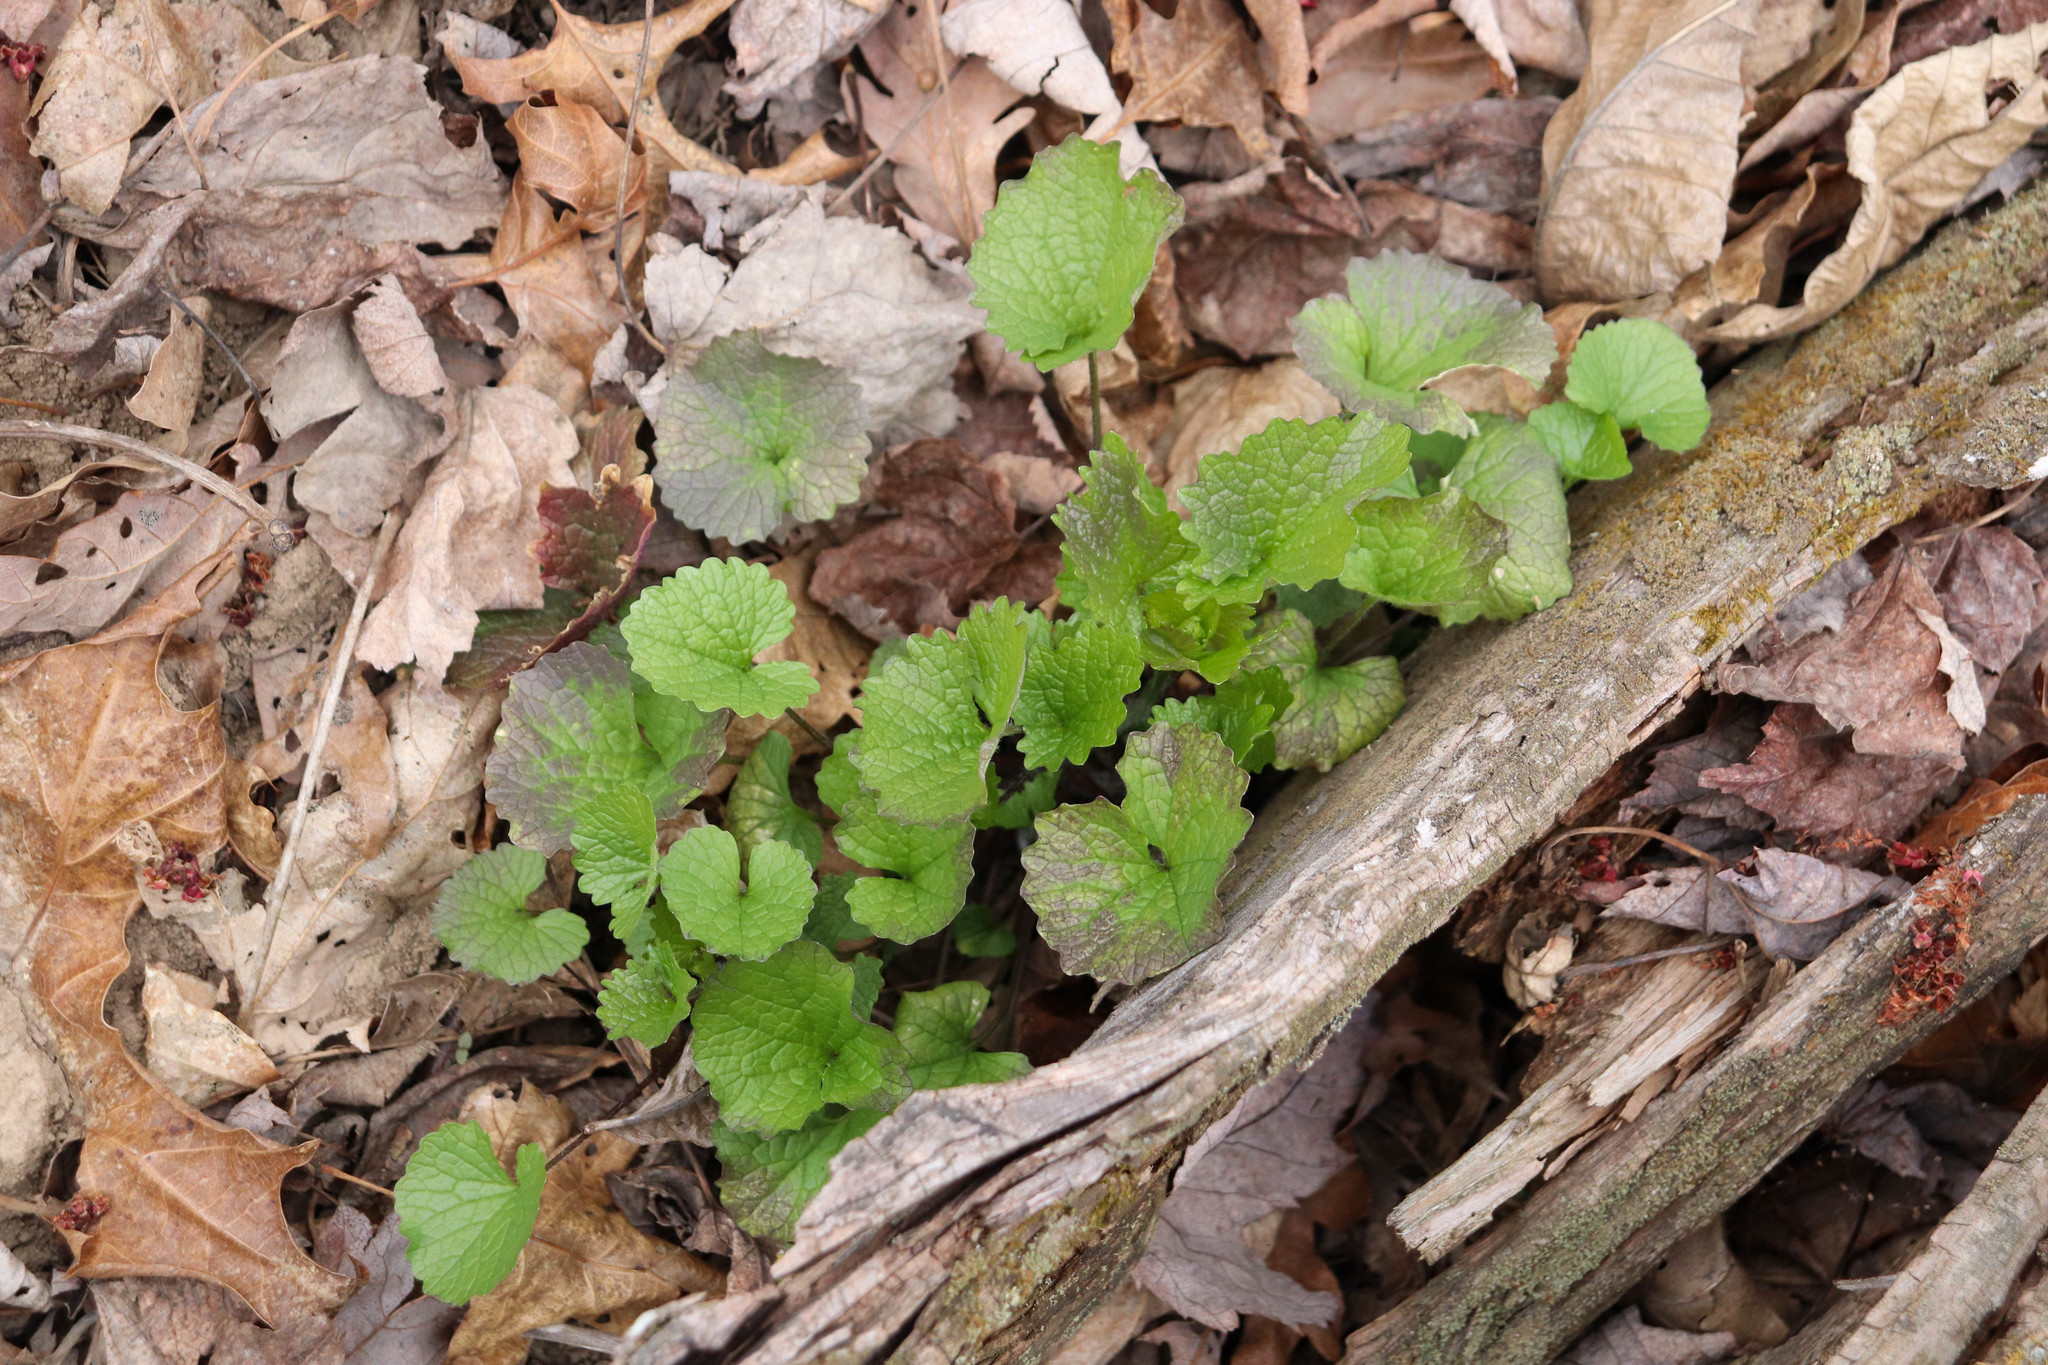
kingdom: Plantae
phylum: Tracheophyta
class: Magnoliopsida
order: Brassicales
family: Brassicaceae
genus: Alliaria
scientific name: Alliaria petiolata
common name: Garlic mustard
